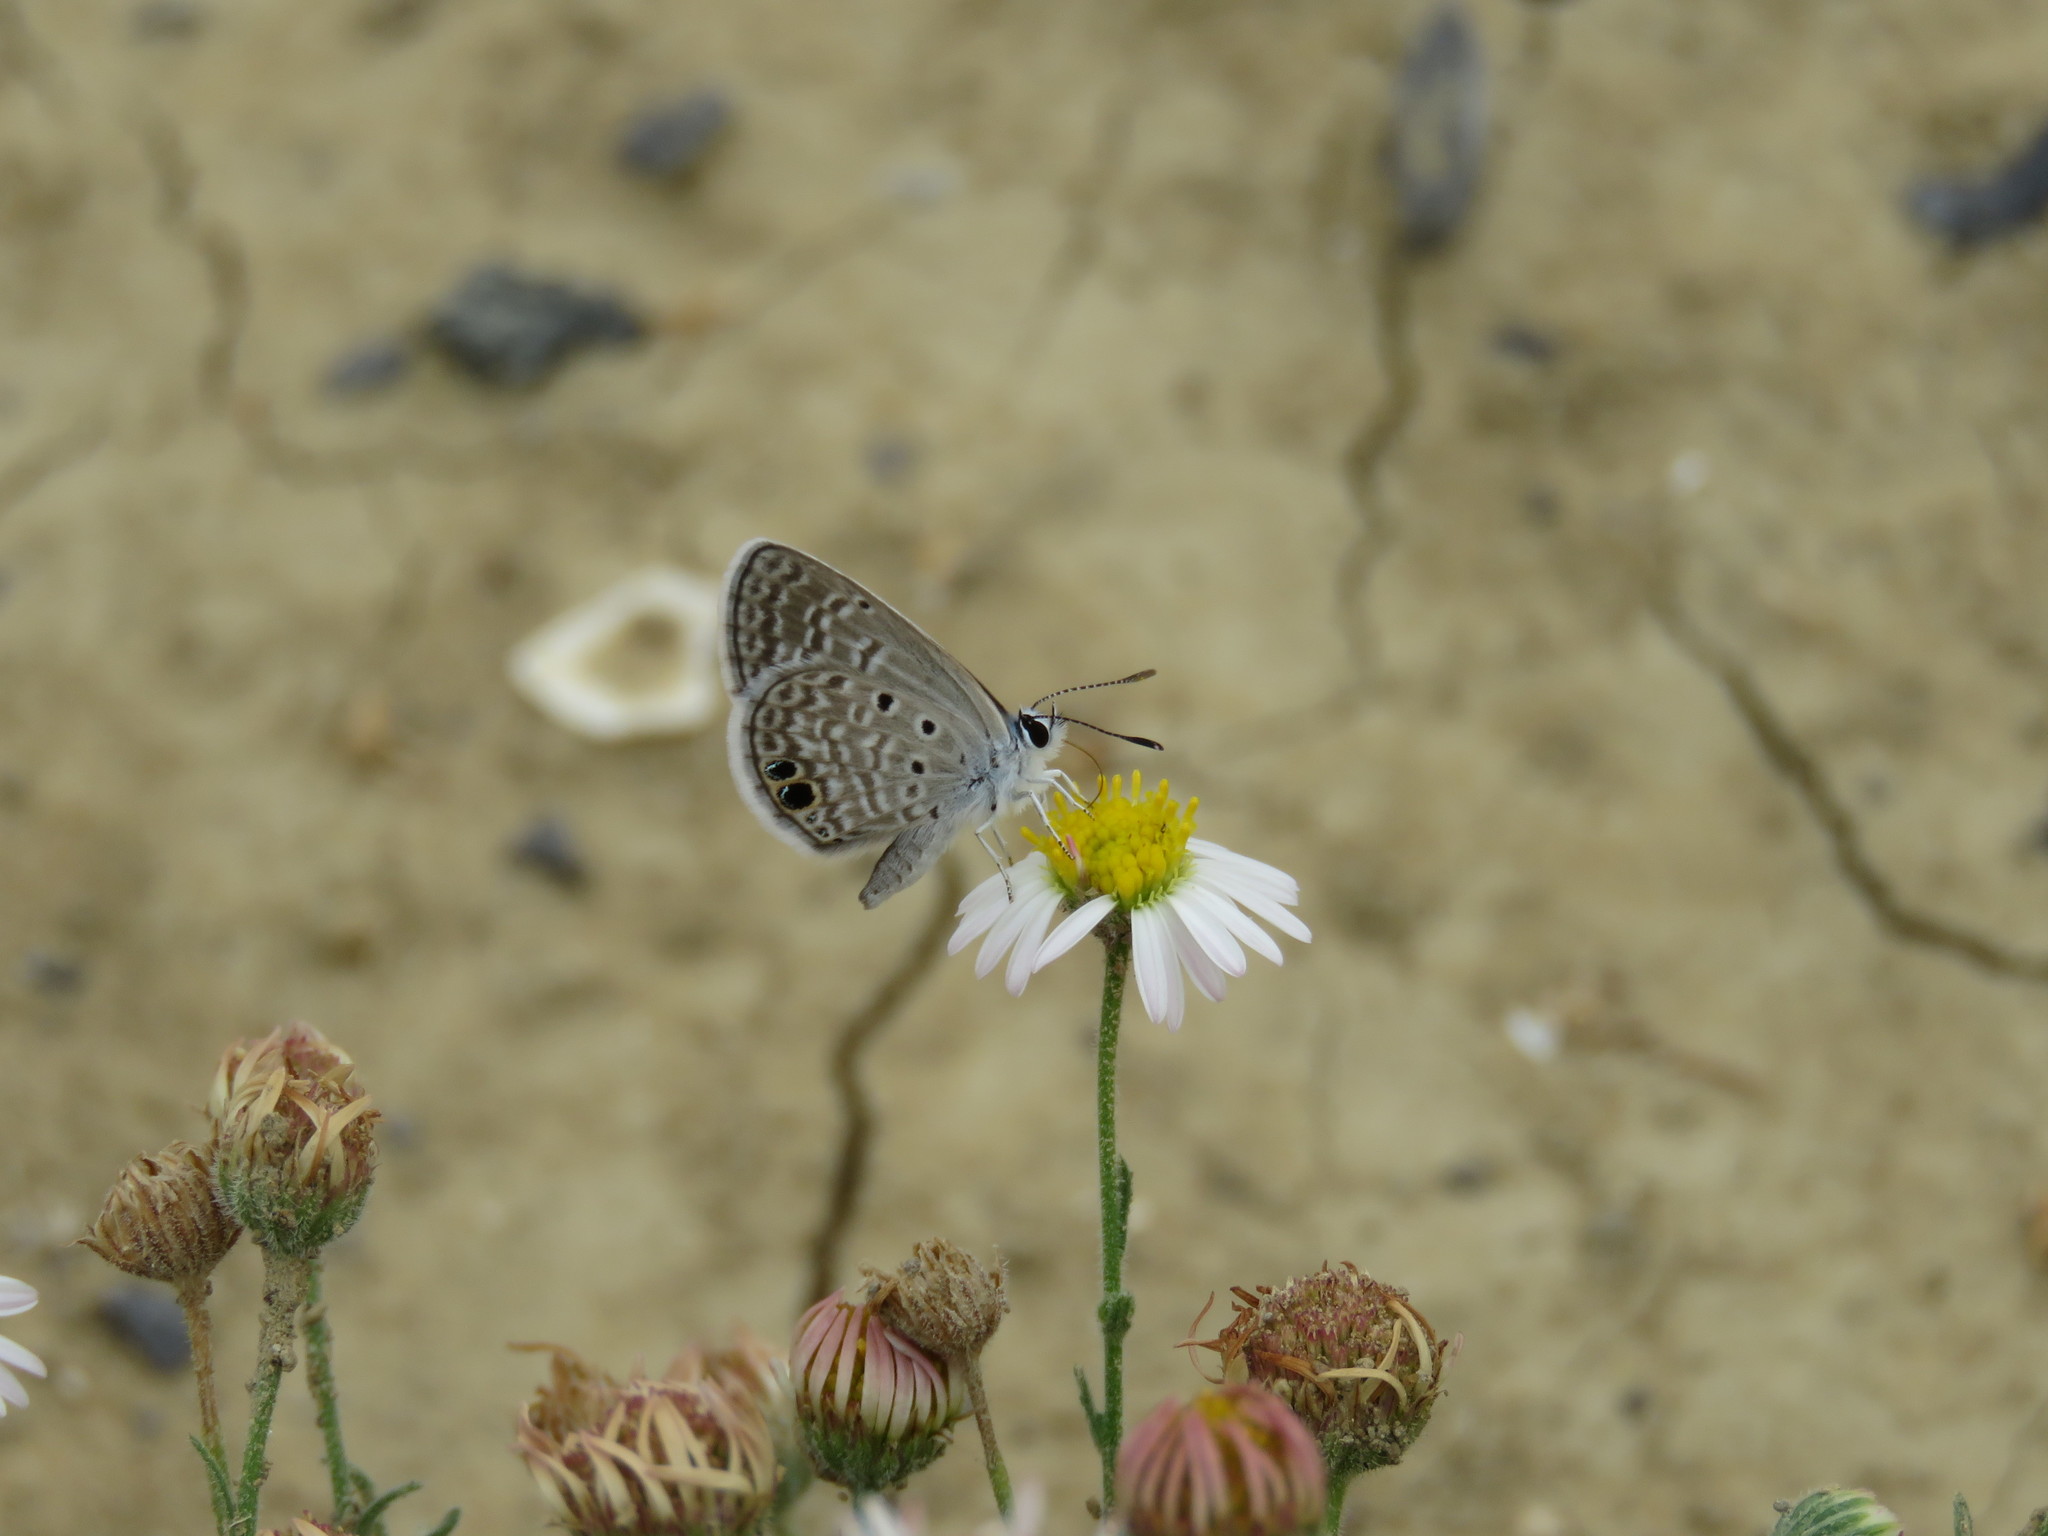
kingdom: Animalia
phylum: Arthropoda
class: Insecta
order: Lepidoptera
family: Lycaenidae
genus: Hemiargus
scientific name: Hemiargus ceraunus
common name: Ceraunus blue
